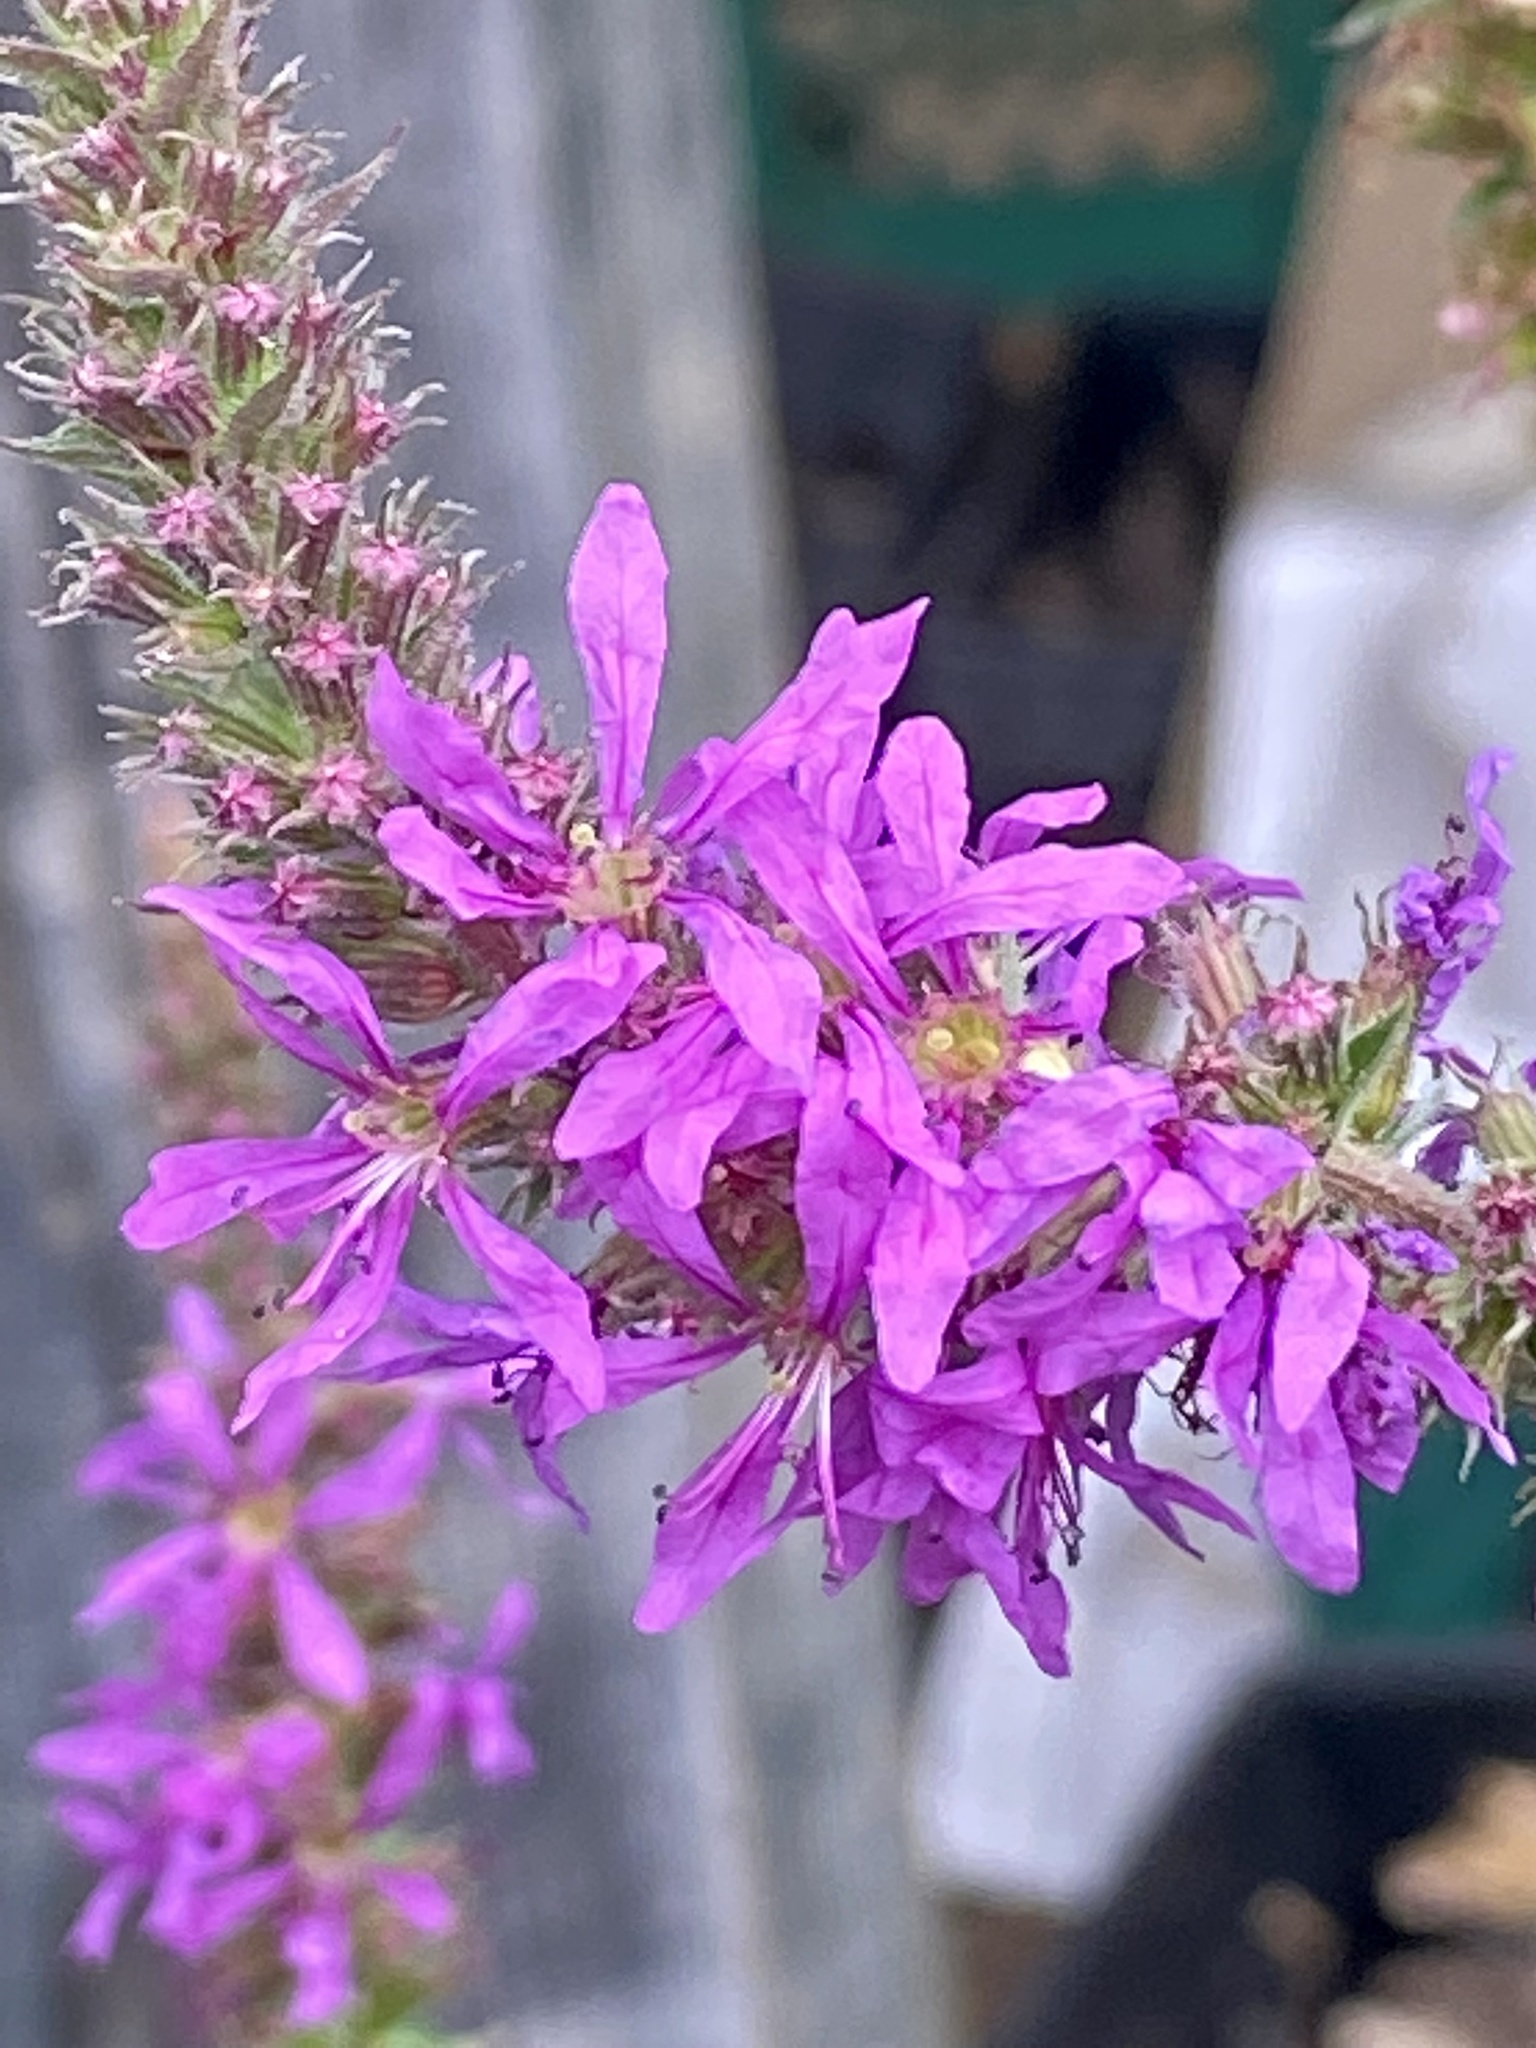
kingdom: Plantae
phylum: Tracheophyta
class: Magnoliopsida
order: Myrtales
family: Lythraceae
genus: Lythrum
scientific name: Lythrum salicaria
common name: Purple loosestrife
